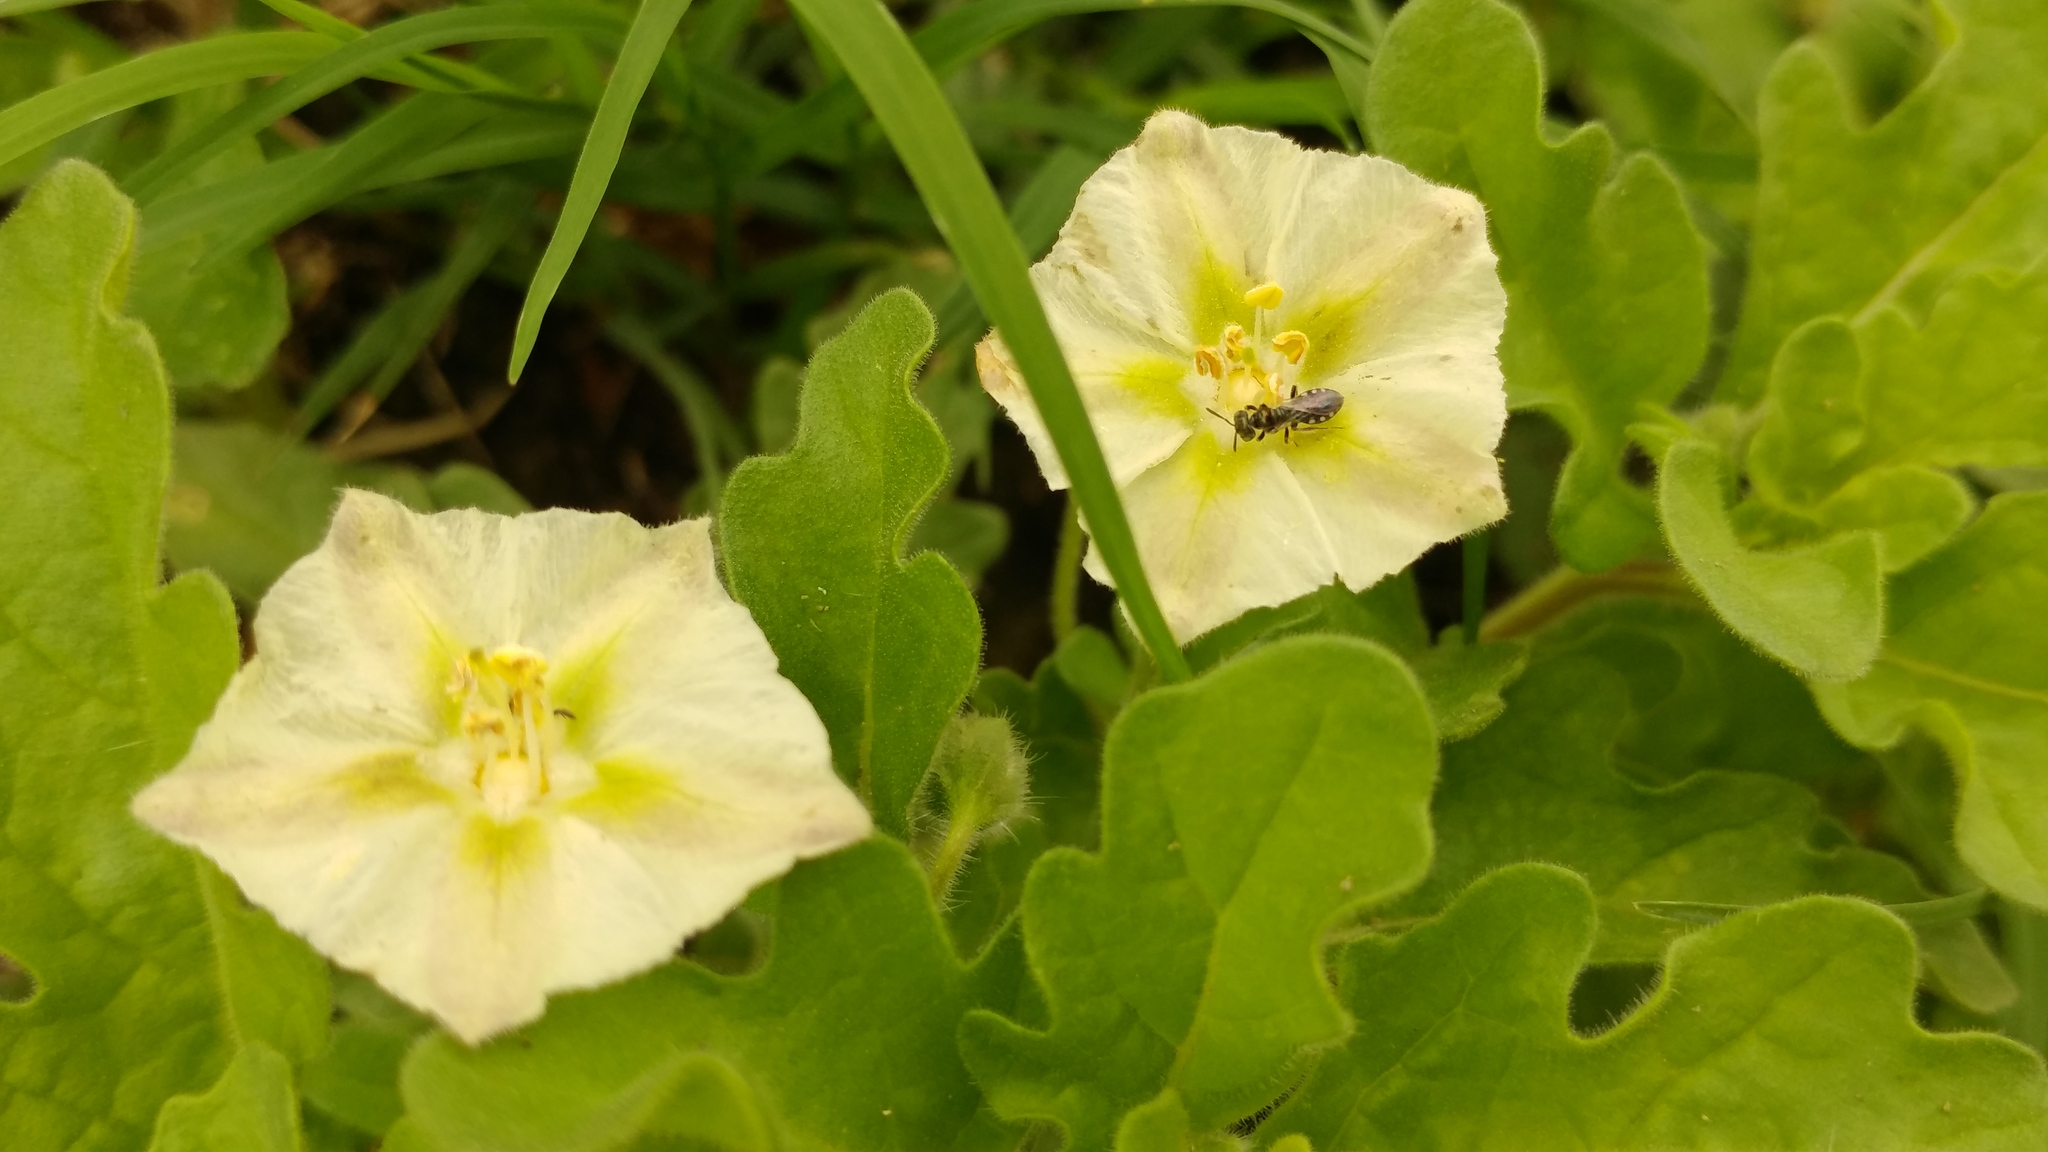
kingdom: Animalia
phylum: Arthropoda
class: Insecta
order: Hymenoptera
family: Andrenidae
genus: Perdita
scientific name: Perdita sexmaculata
